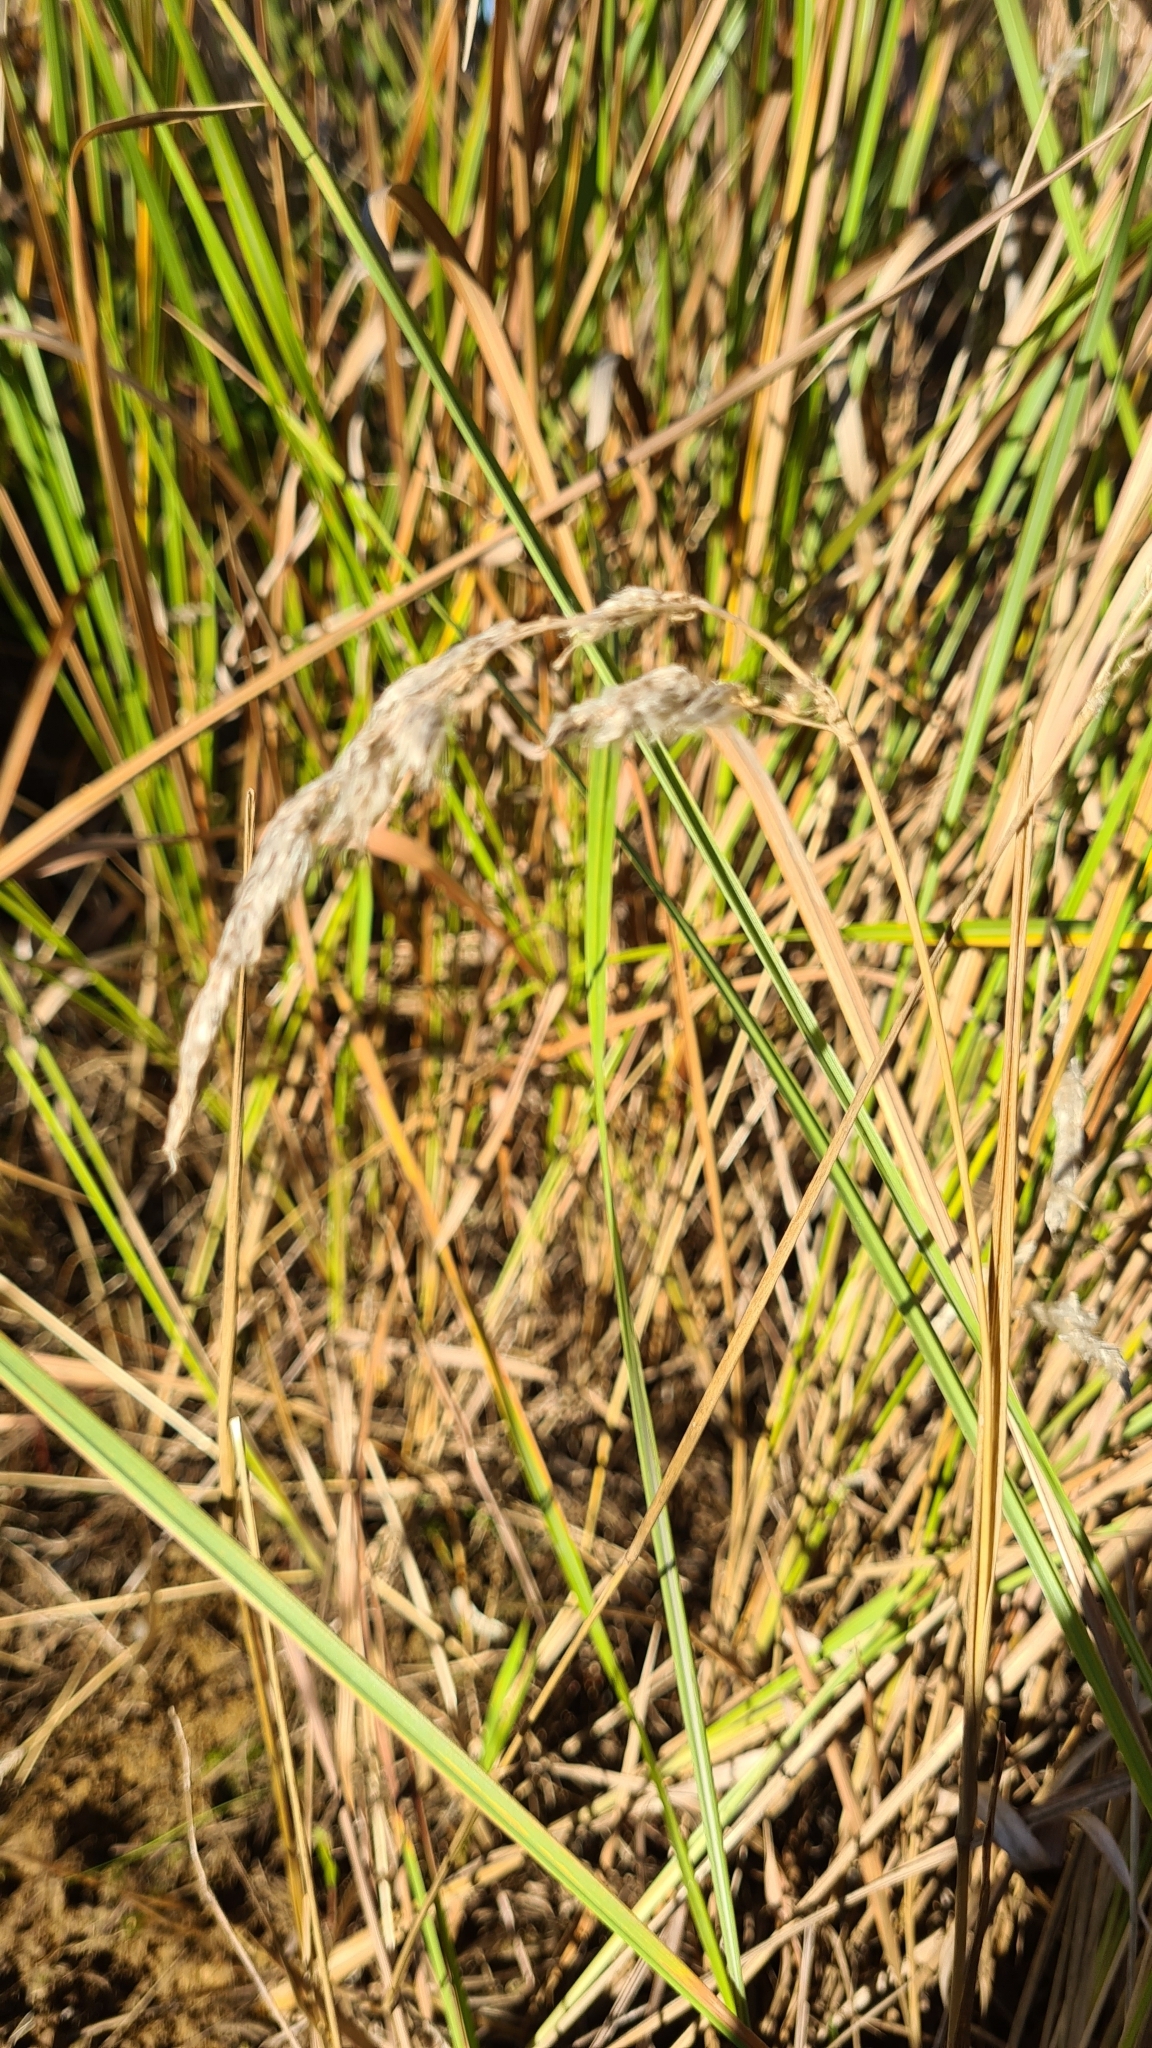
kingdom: Plantae
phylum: Tracheophyta
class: Liliopsida
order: Poales
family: Poaceae
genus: Imperata
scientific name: Imperata cylindrica
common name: Cogongrass
